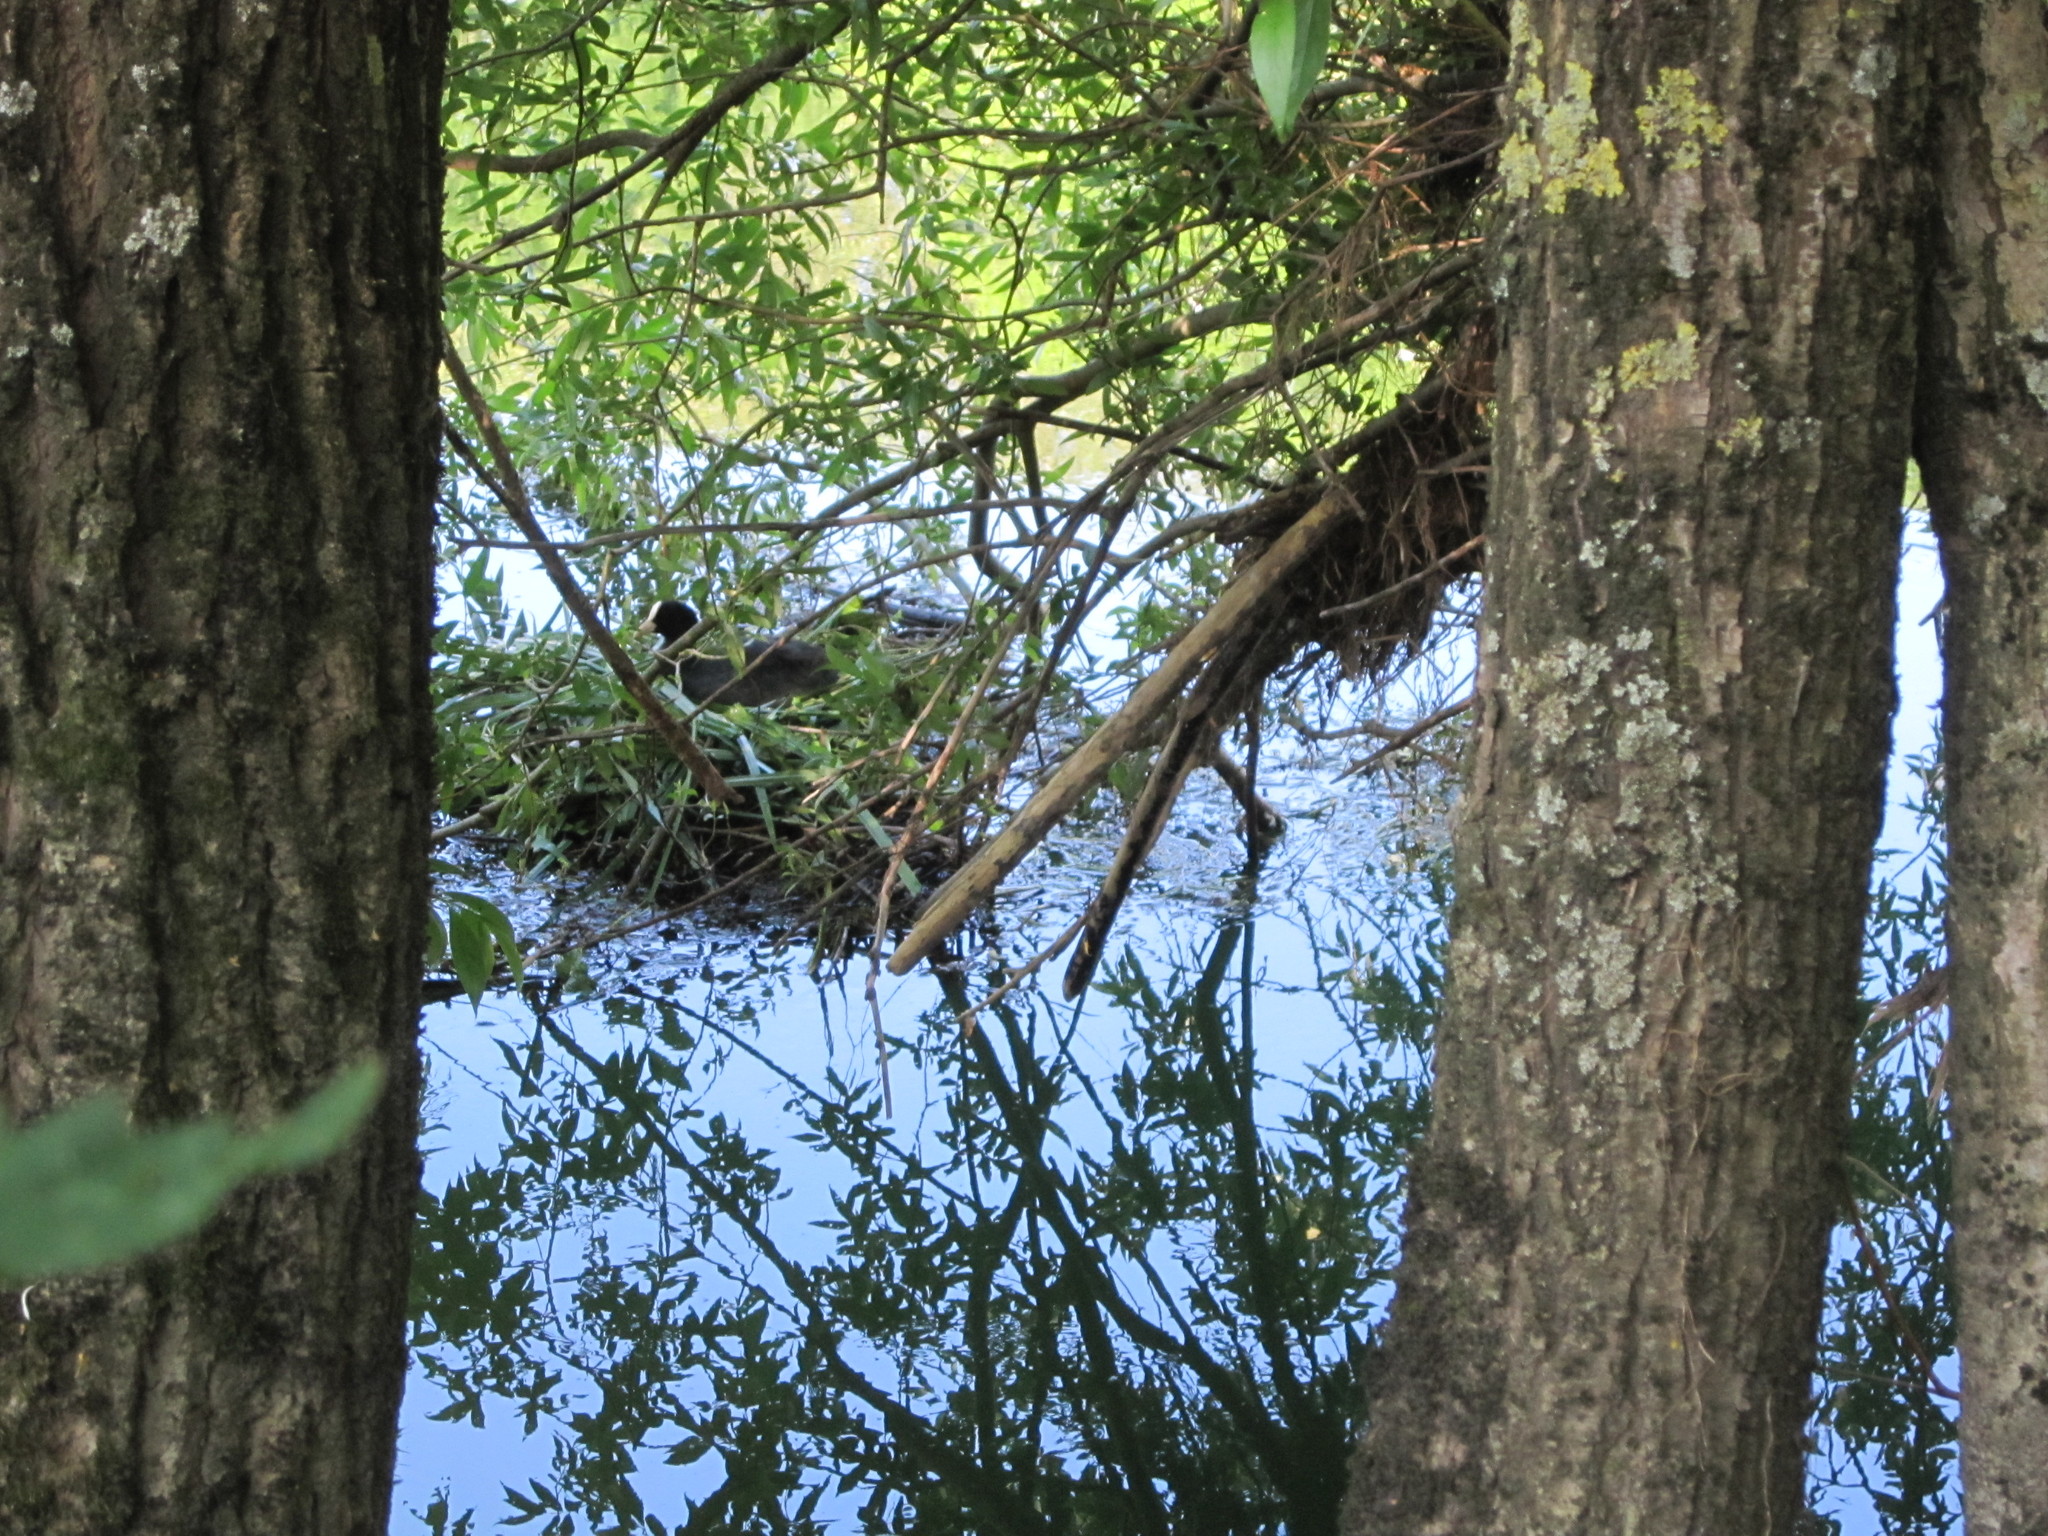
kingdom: Animalia
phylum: Chordata
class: Aves
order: Gruiformes
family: Rallidae
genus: Fulica
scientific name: Fulica atra
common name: Eurasian coot
